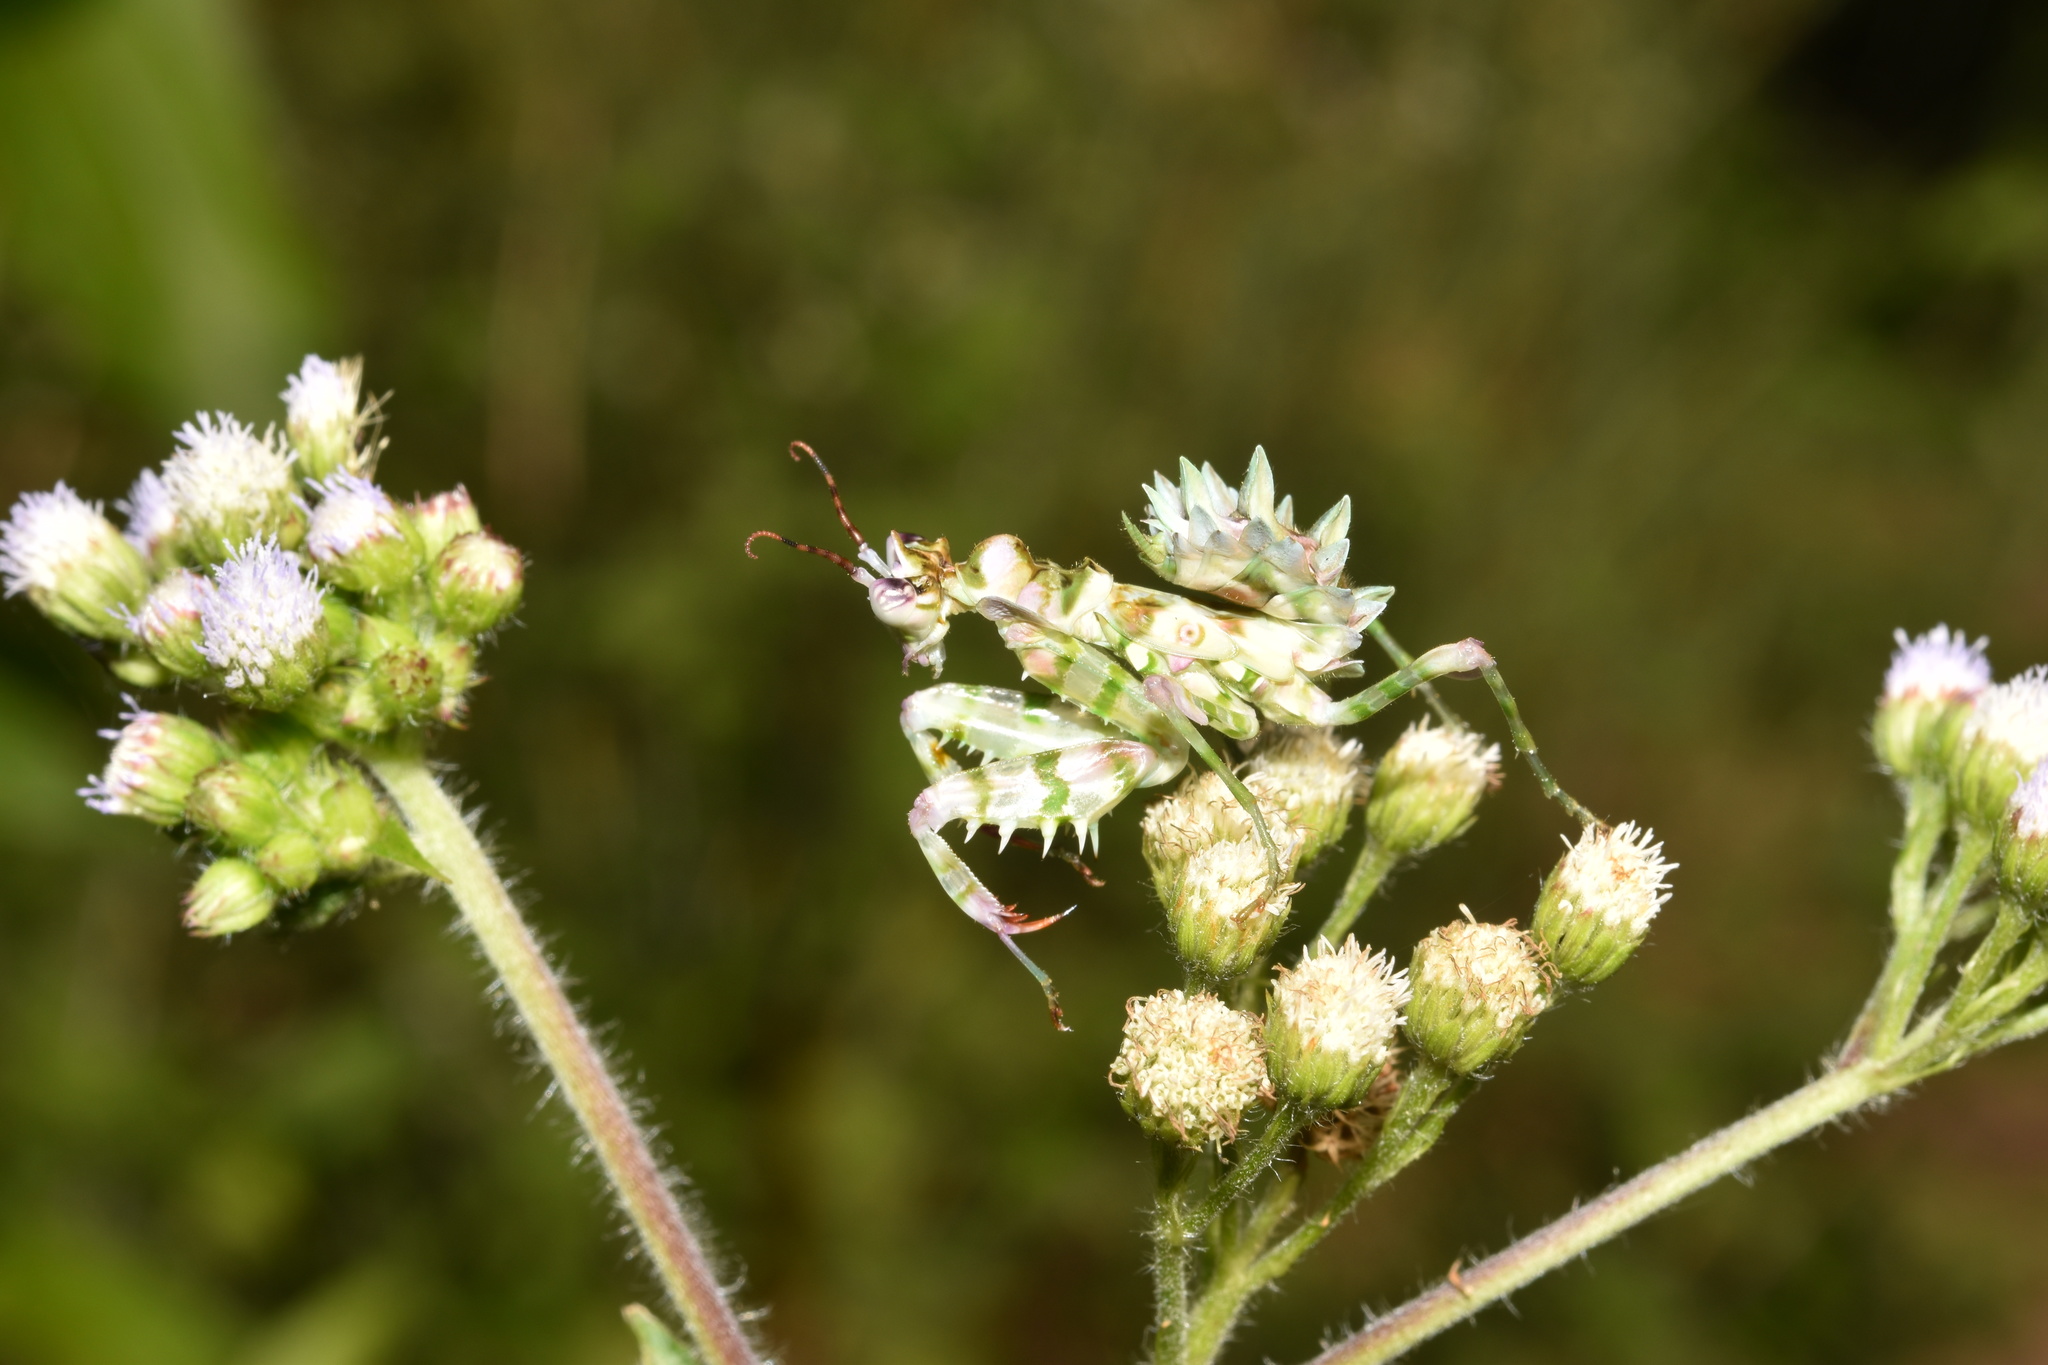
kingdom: Plantae
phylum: Tracheophyta
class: Magnoliopsida
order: Asterales
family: Asteraceae
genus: Ageratum
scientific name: Ageratum houstonianum
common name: Bluemink
